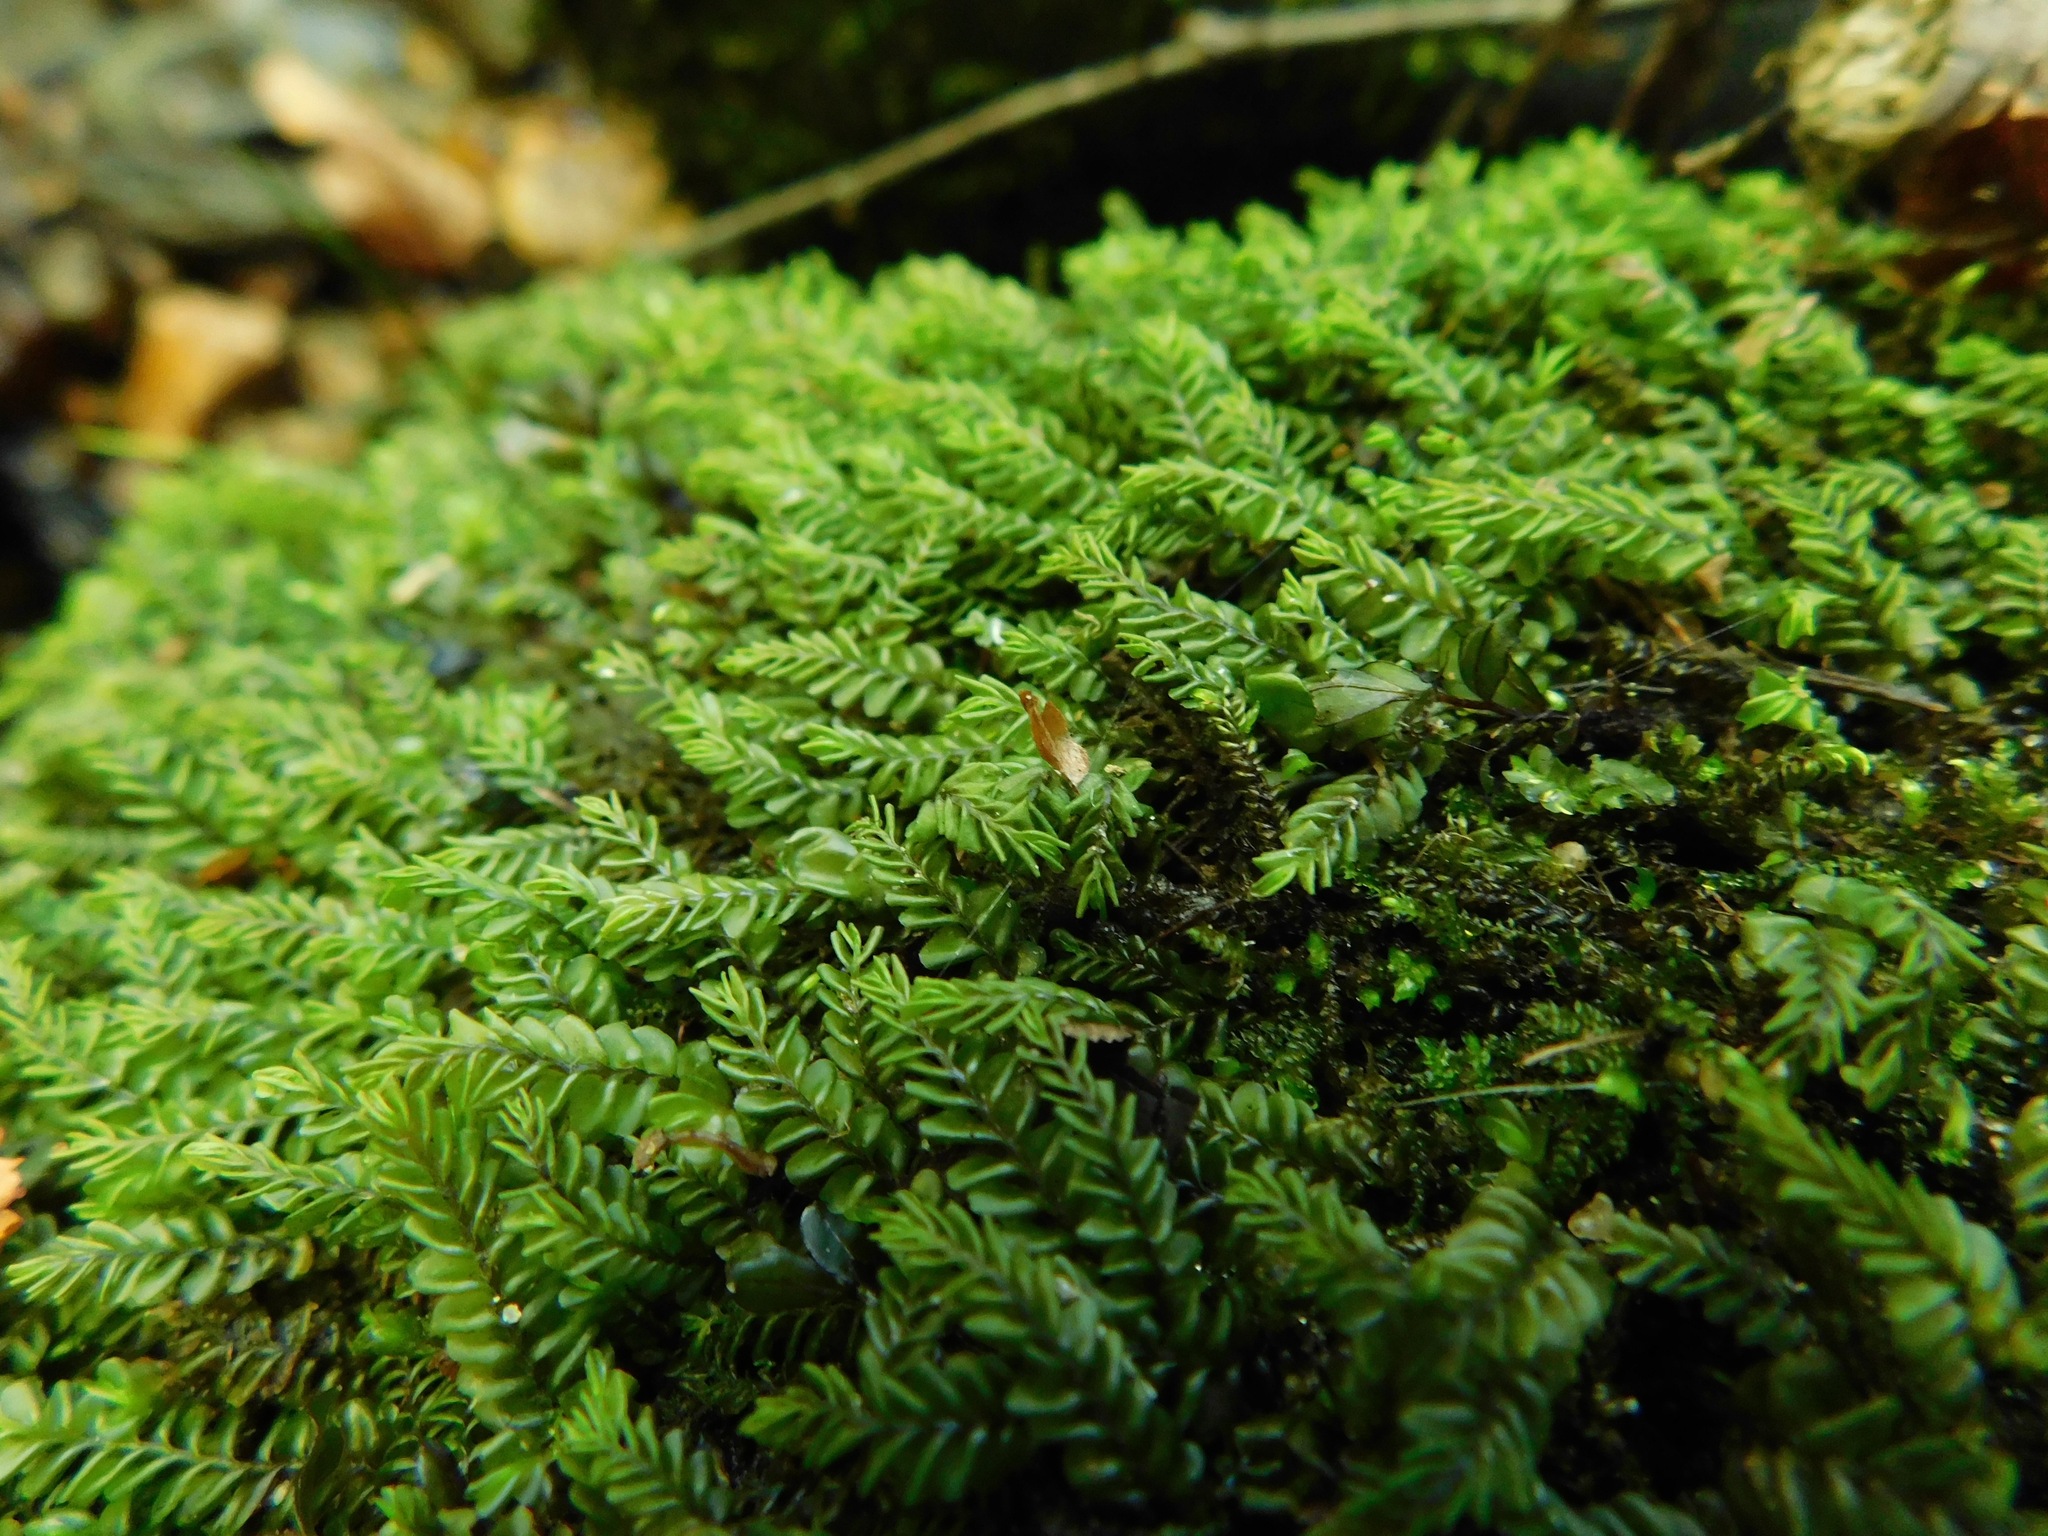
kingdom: Plantae
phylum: Marchantiophyta
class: Jungermanniopsida
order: Jungermanniales
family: Plagiochilaceae
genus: Plagiochila
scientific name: Plagiochila porelloides
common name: Lesser featherwort
